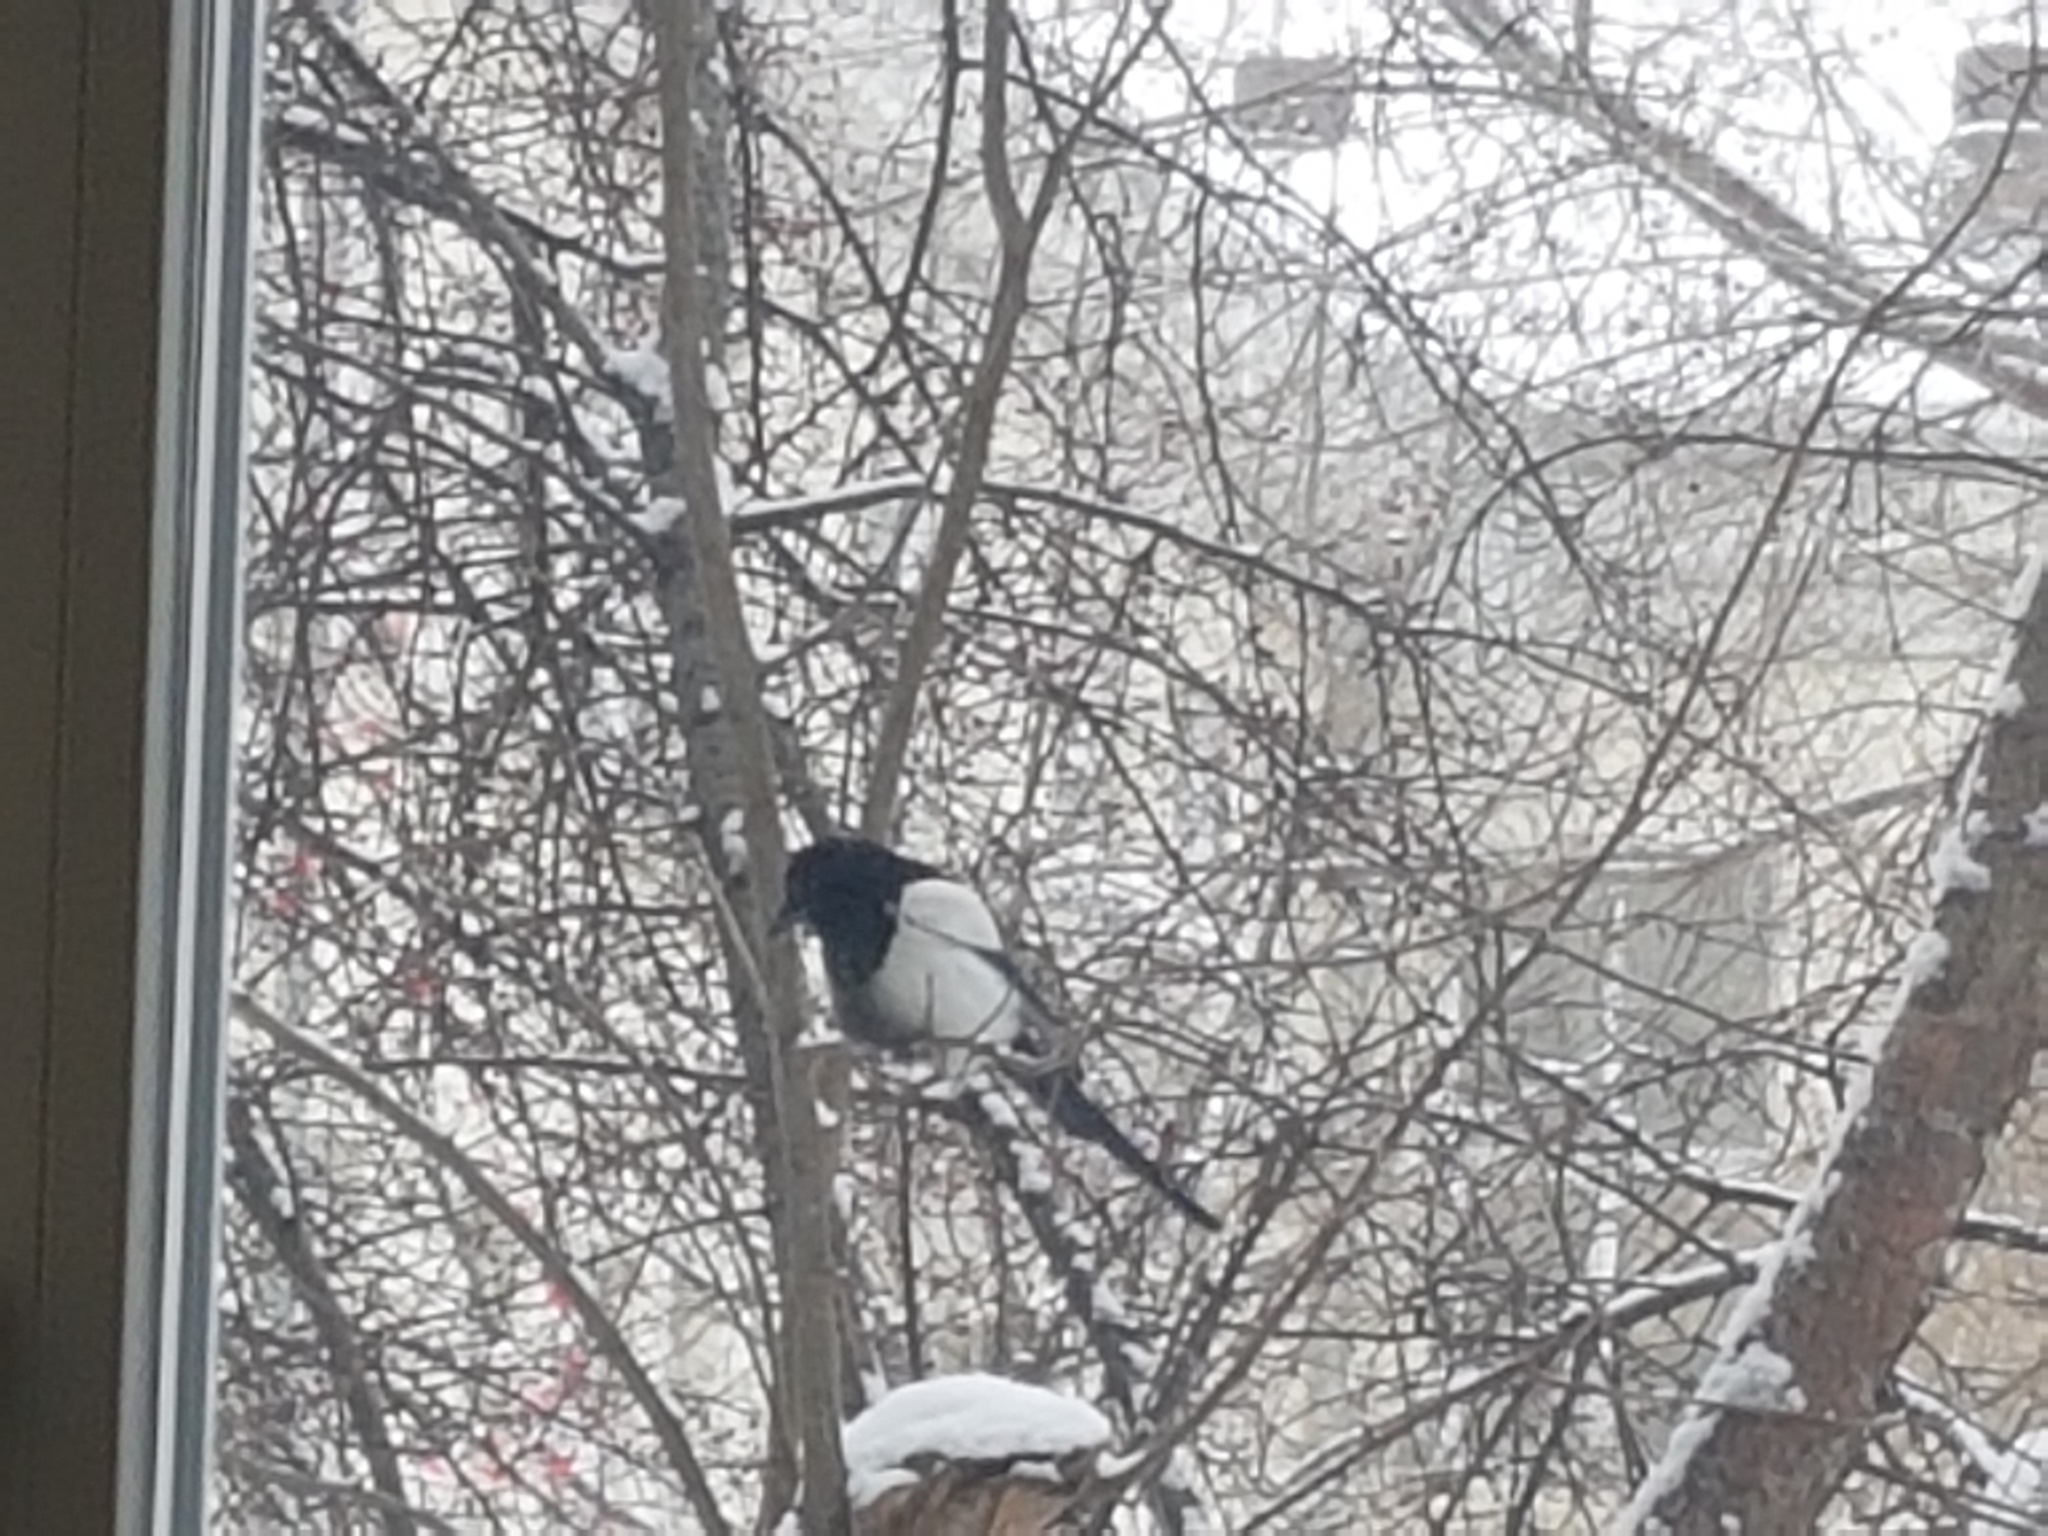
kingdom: Animalia
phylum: Chordata
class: Aves
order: Passeriformes
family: Corvidae
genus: Pica
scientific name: Pica pica
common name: Eurasian magpie
